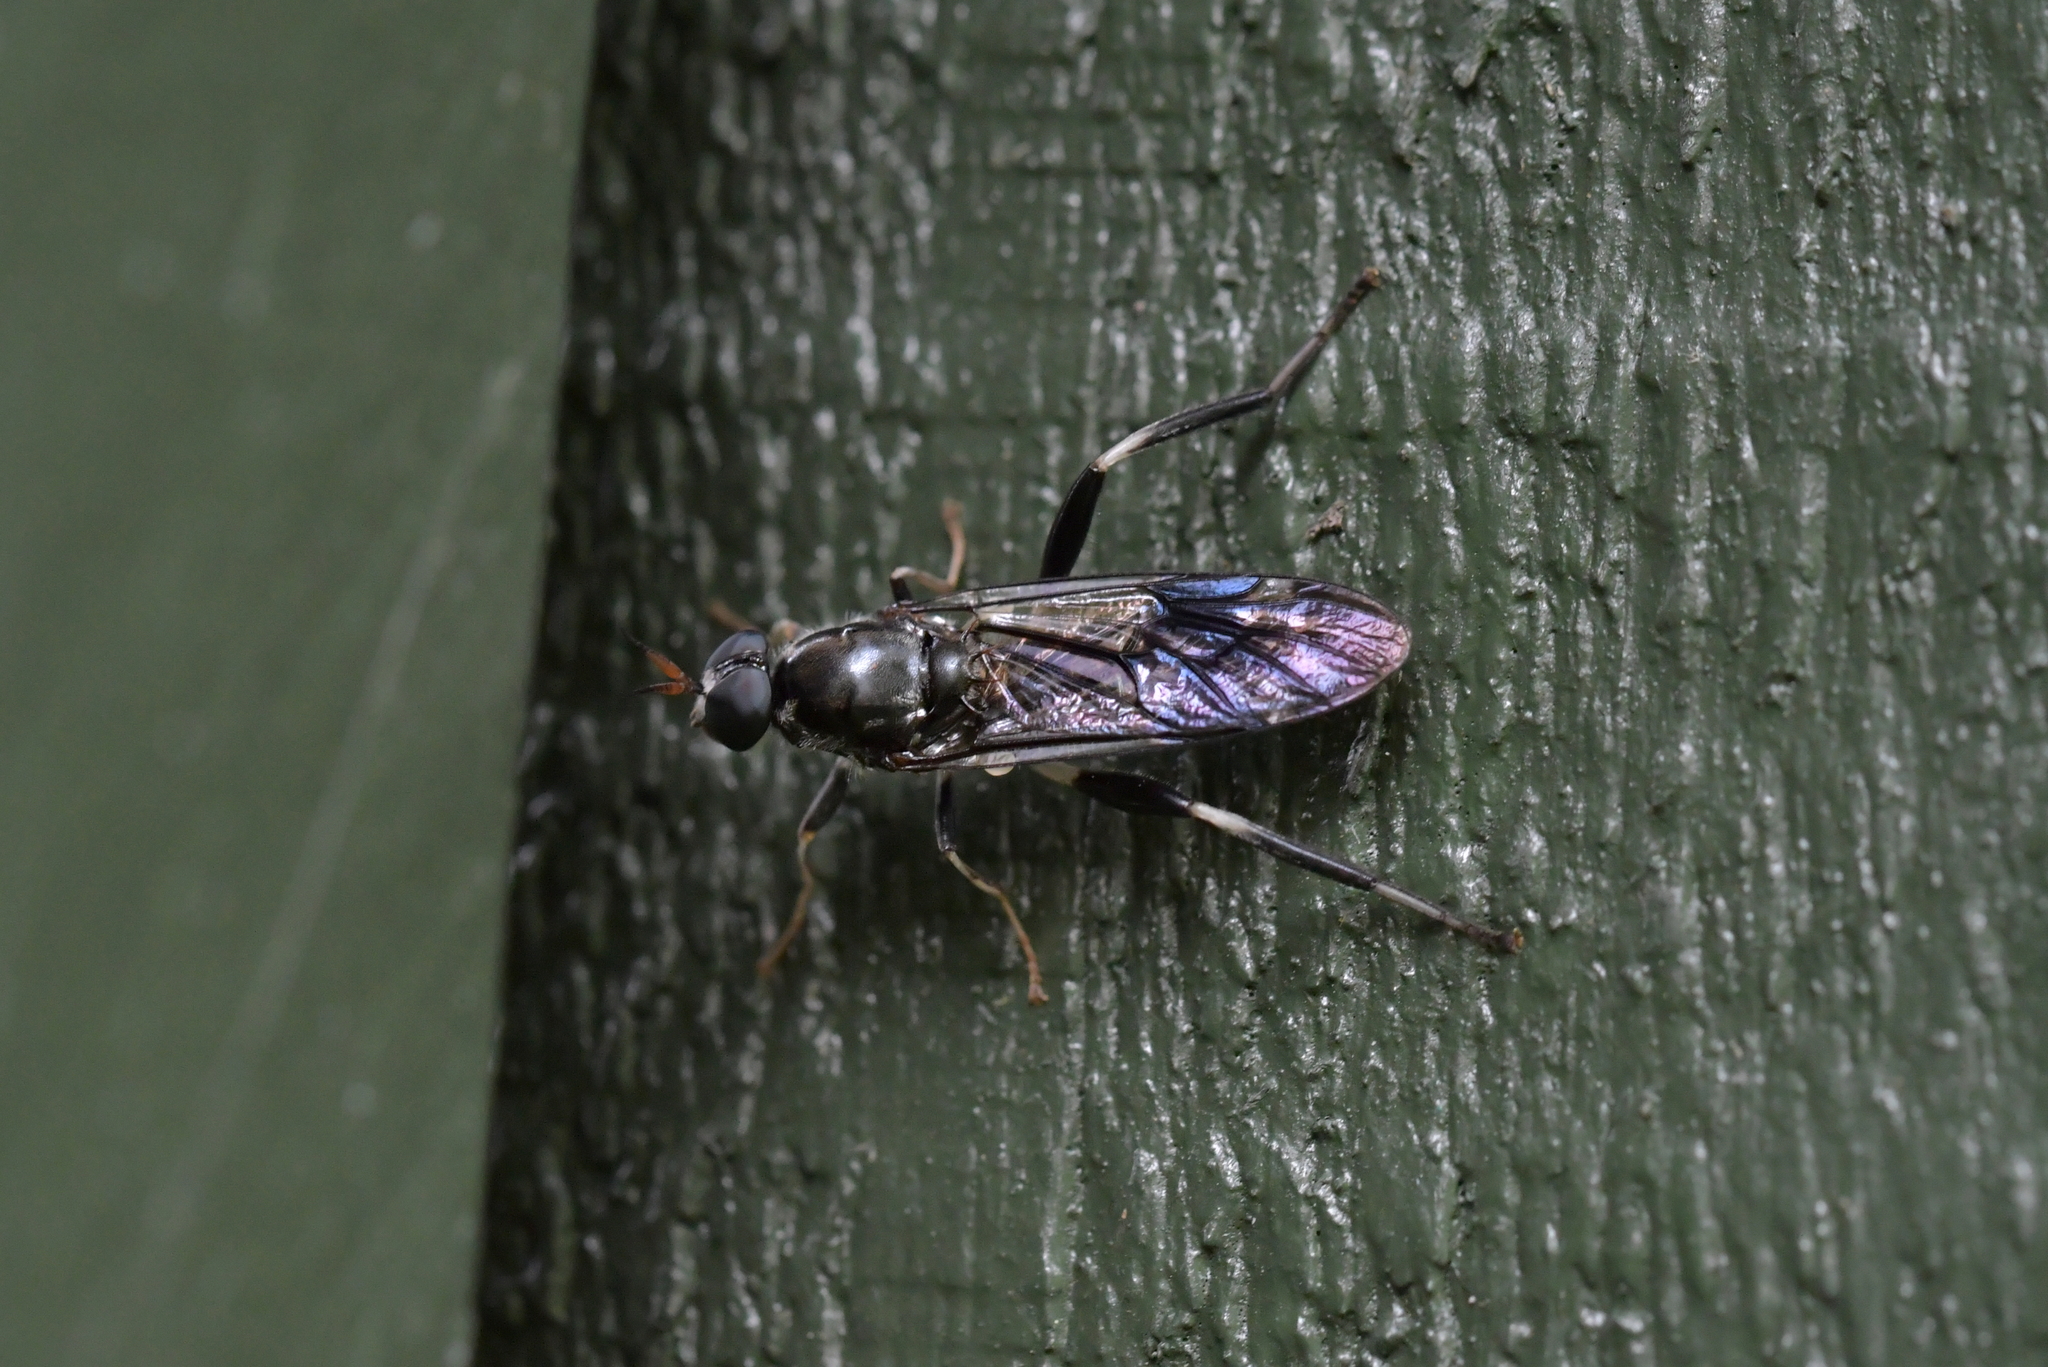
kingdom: Animalia
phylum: Arthropoda
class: Insecta
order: Diptera
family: Stratiomyidae
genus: Exaireta
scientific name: Exaireta spinigera
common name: Blue soldier fly
